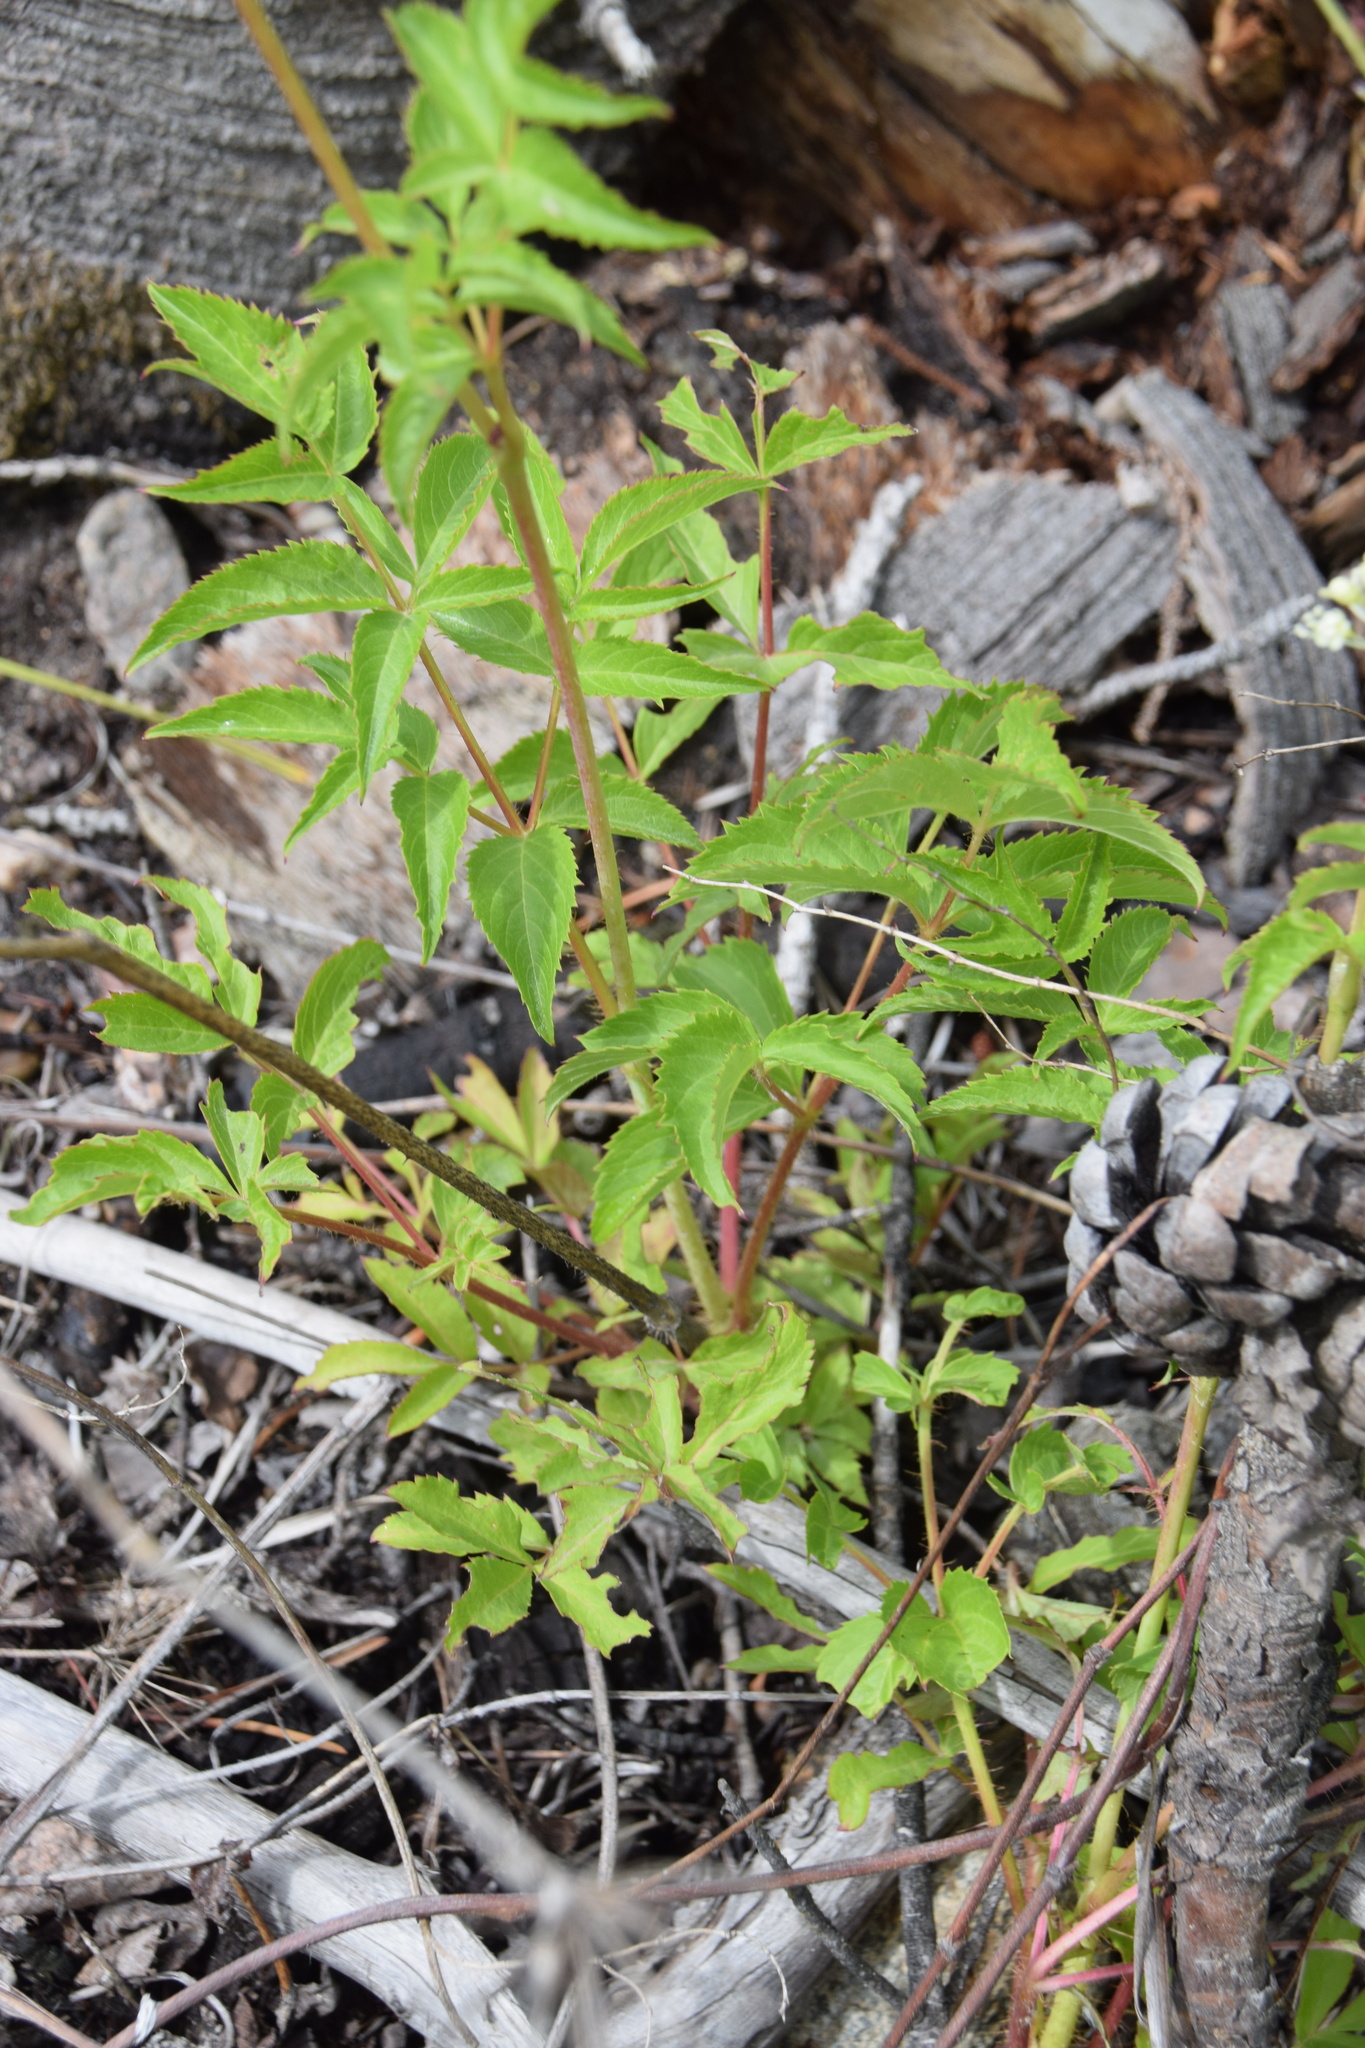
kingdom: Plantae
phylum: Tracheophyta
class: Magnoliopsida
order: Apiales
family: Araliaceae
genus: Aralia
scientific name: Aralia hispida
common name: Bristly sarsaparilla
